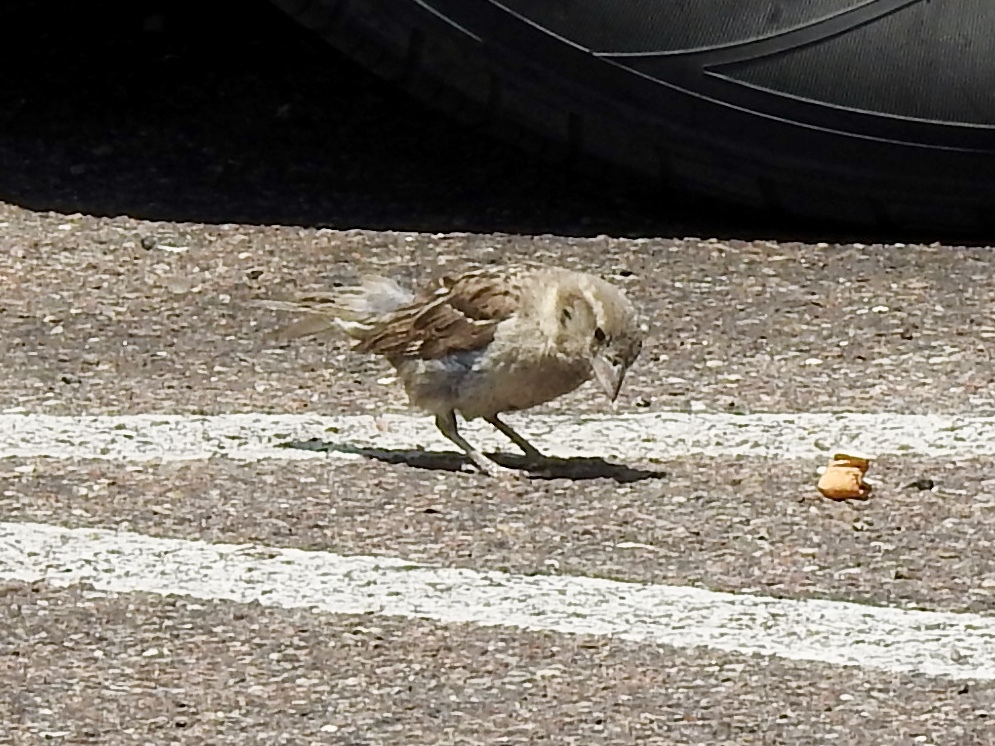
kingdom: Animalia
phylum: Chordata
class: Aves
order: Passeriformes
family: Passeridae
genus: Passer
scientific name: Passer domesticus
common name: House sparrow
